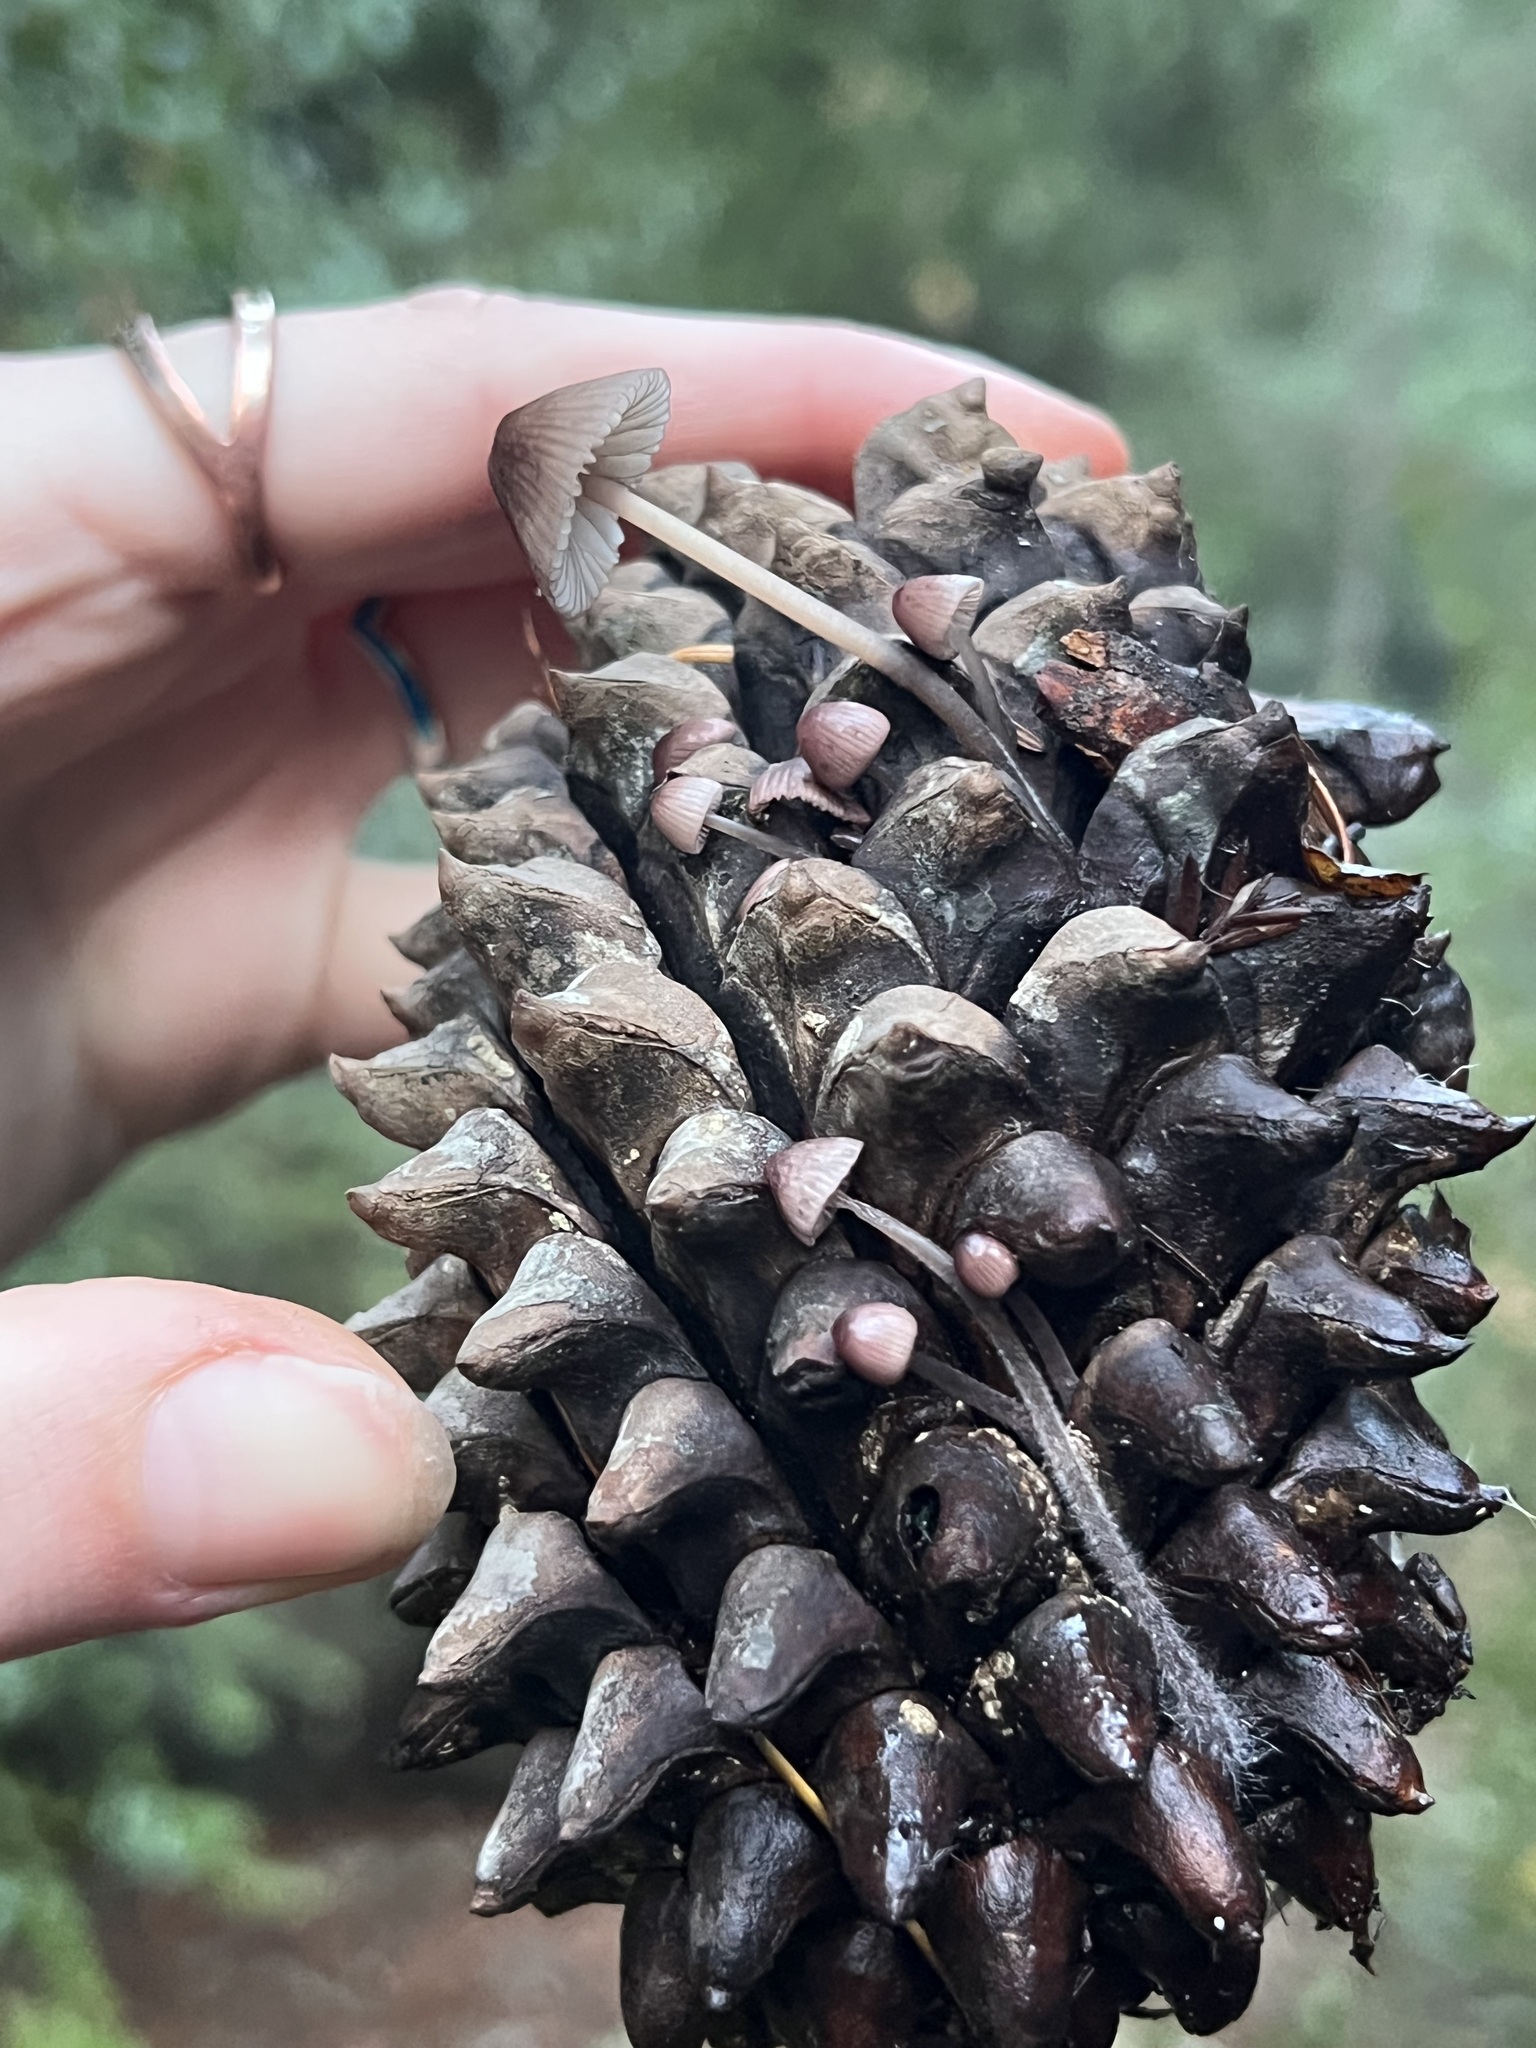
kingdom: Fungi
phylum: Basidiomycota
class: Agaricomycetes
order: Agaricales
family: Mycenaceae
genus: Mycena
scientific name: Mycena purpureofusca
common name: Purple edge bonnet
